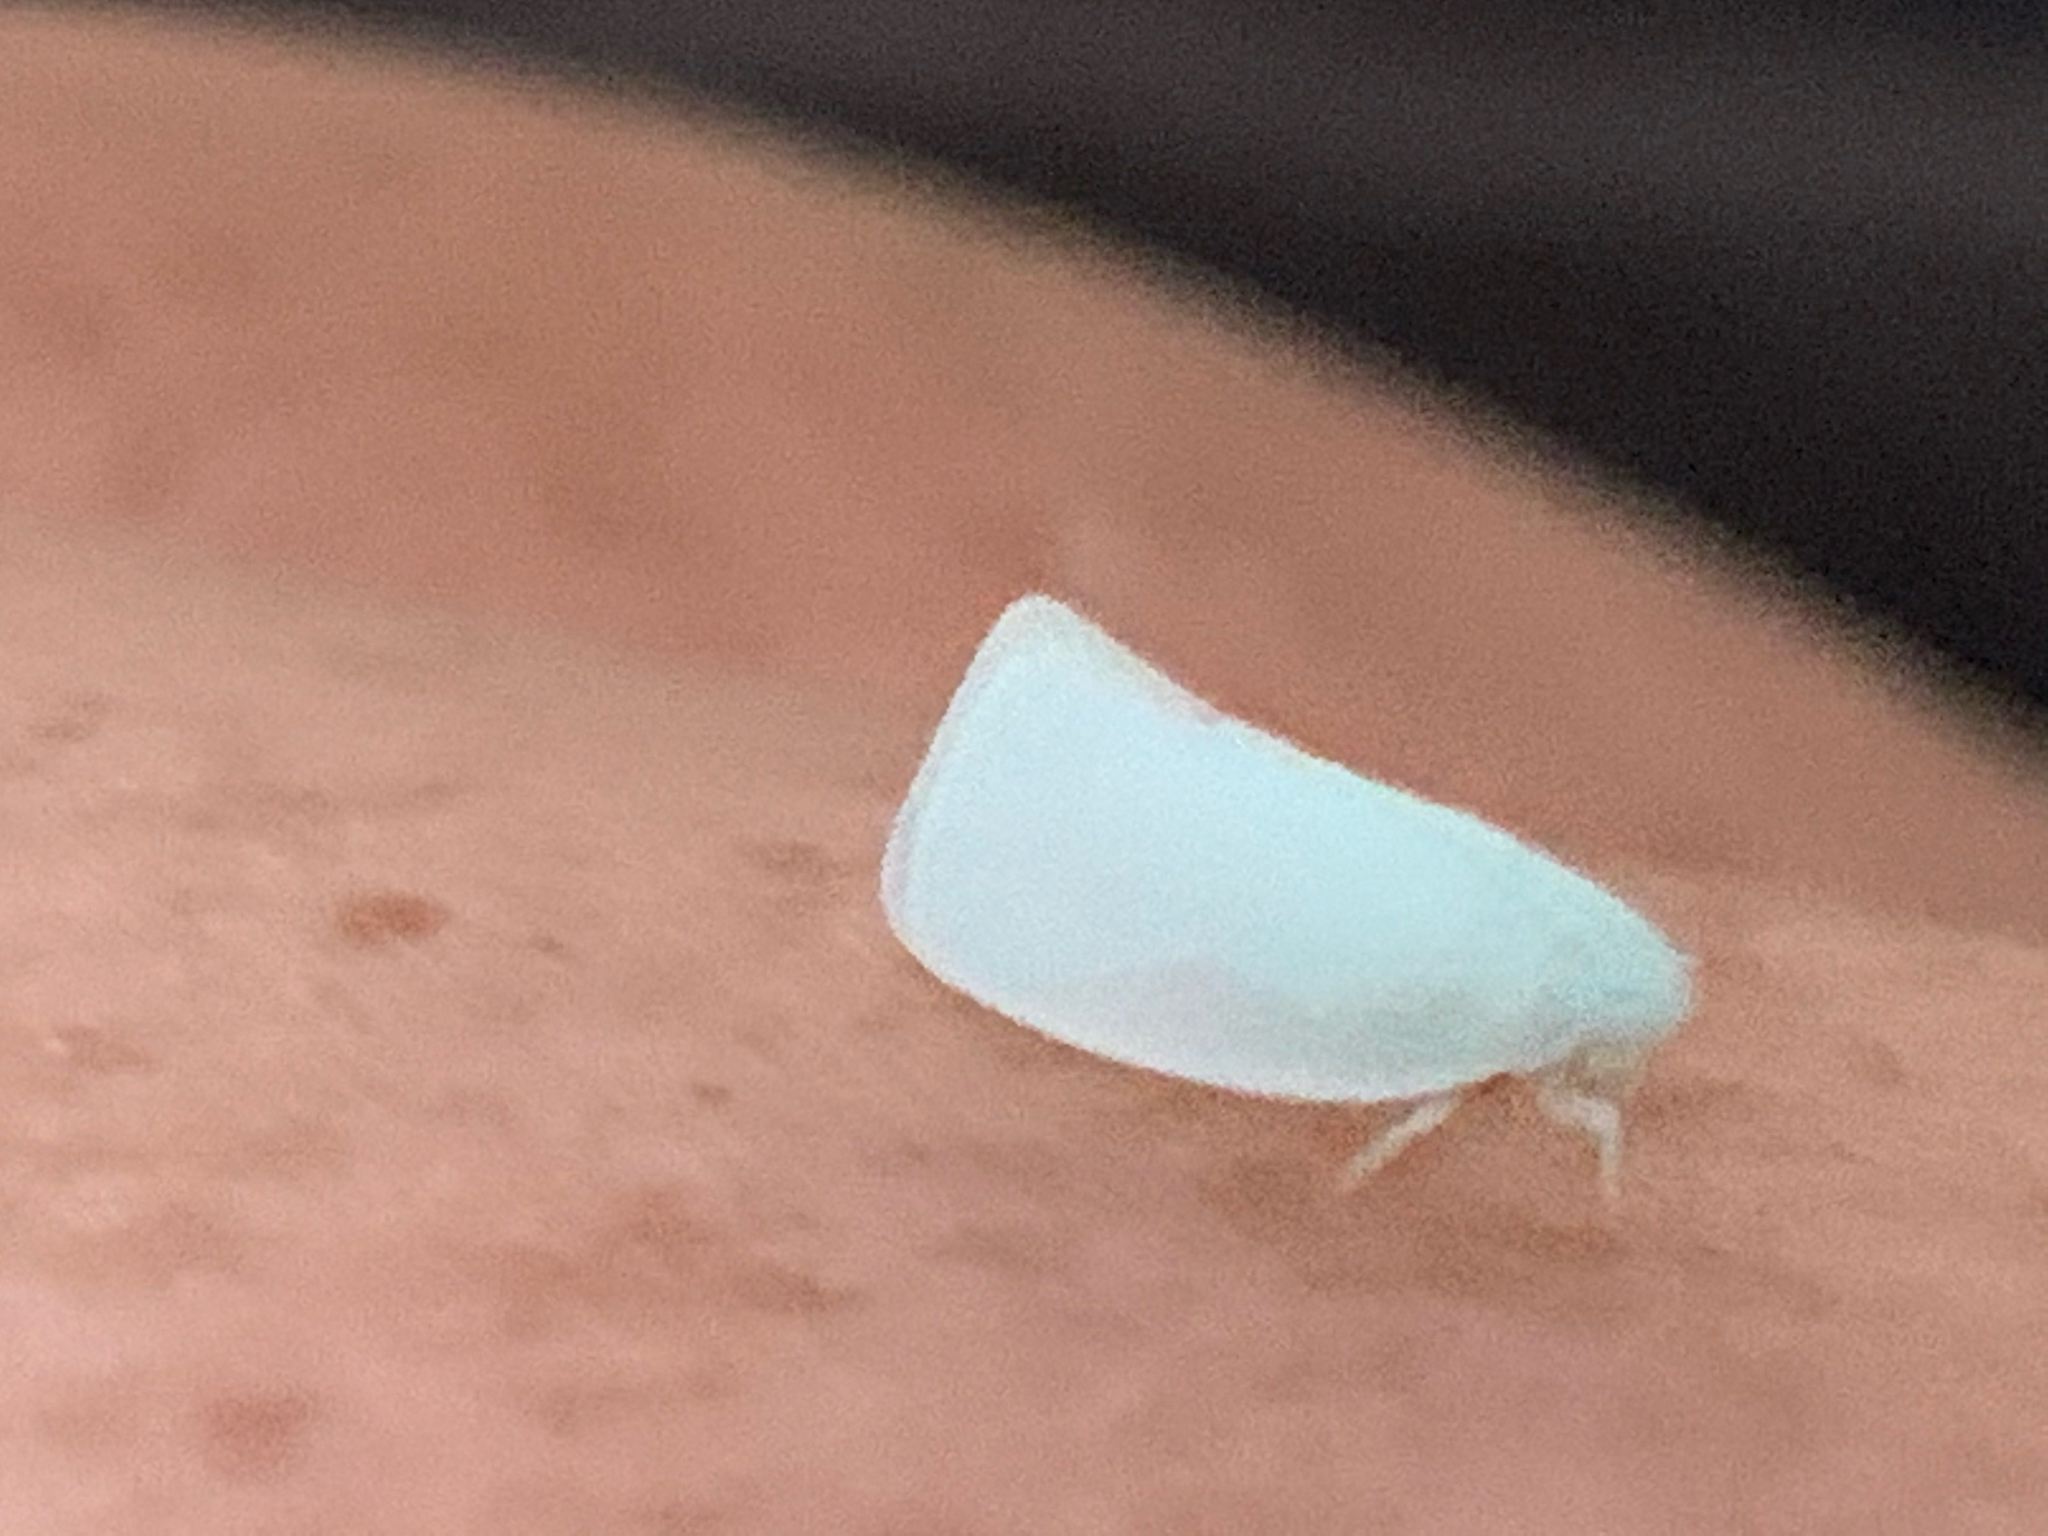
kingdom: Animalia
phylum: Arthropoda
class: Insecta
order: Hemiptera
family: Flatidae
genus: Flatormenis
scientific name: Flatormenis proxima
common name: Northern flatid planthopper
